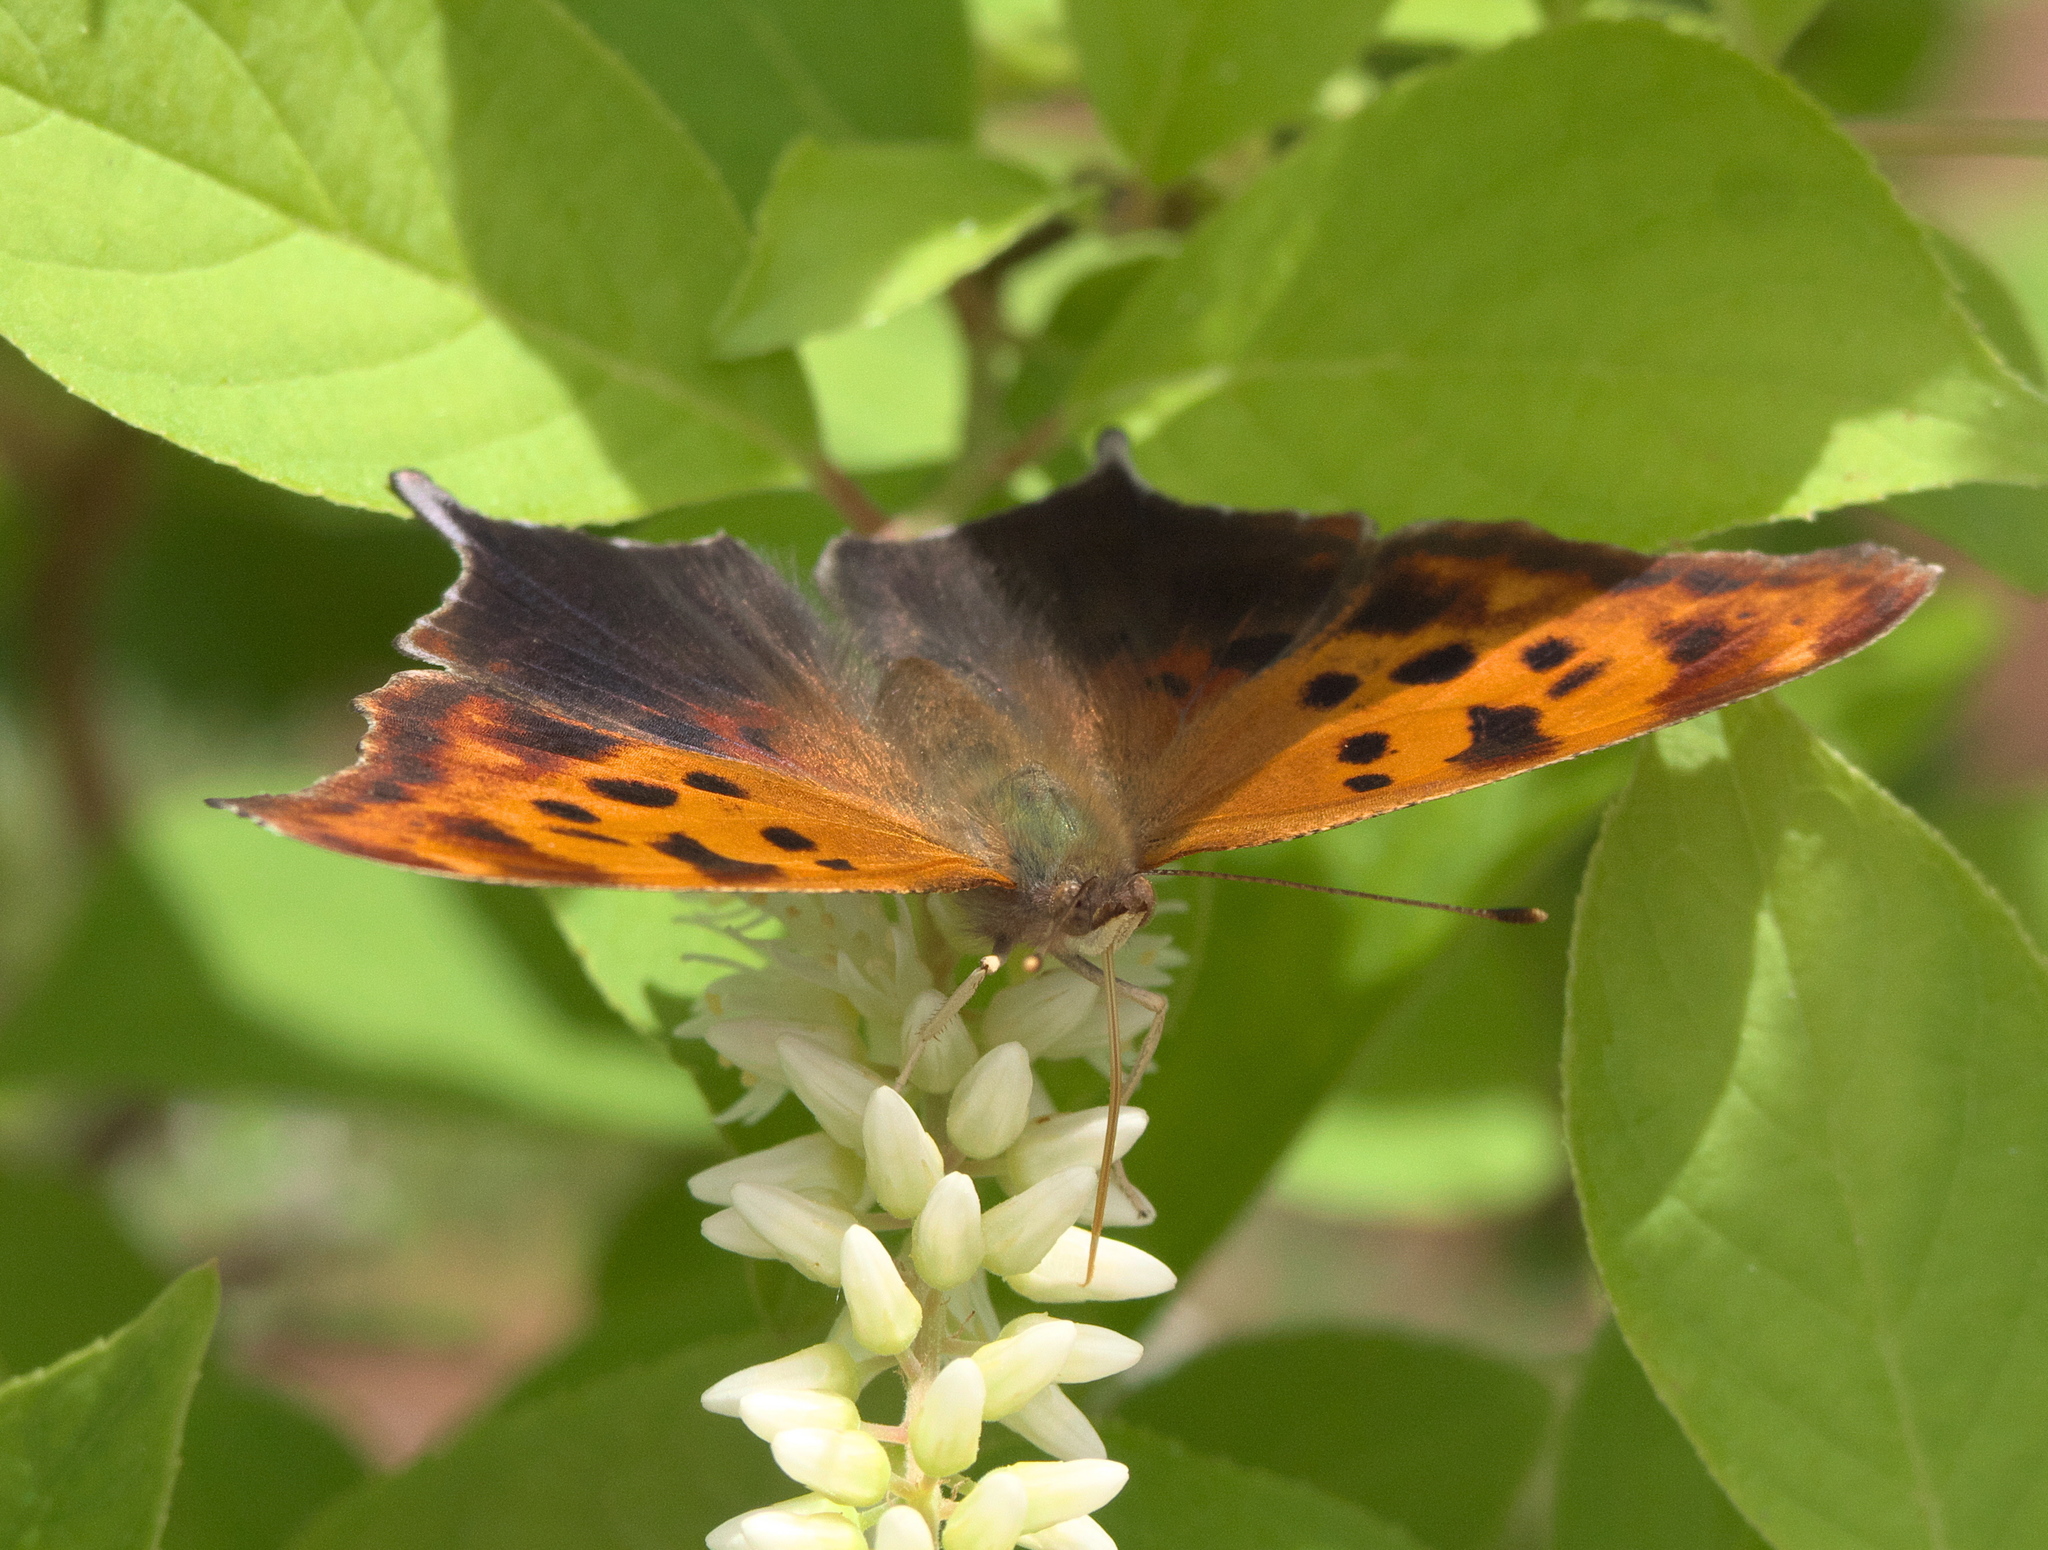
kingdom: Animalia
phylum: Arthropoda
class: Insecta
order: Lepidoptera
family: Nymphalidae
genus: Polygonia
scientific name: Polygonia interrogationis
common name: Question mark
